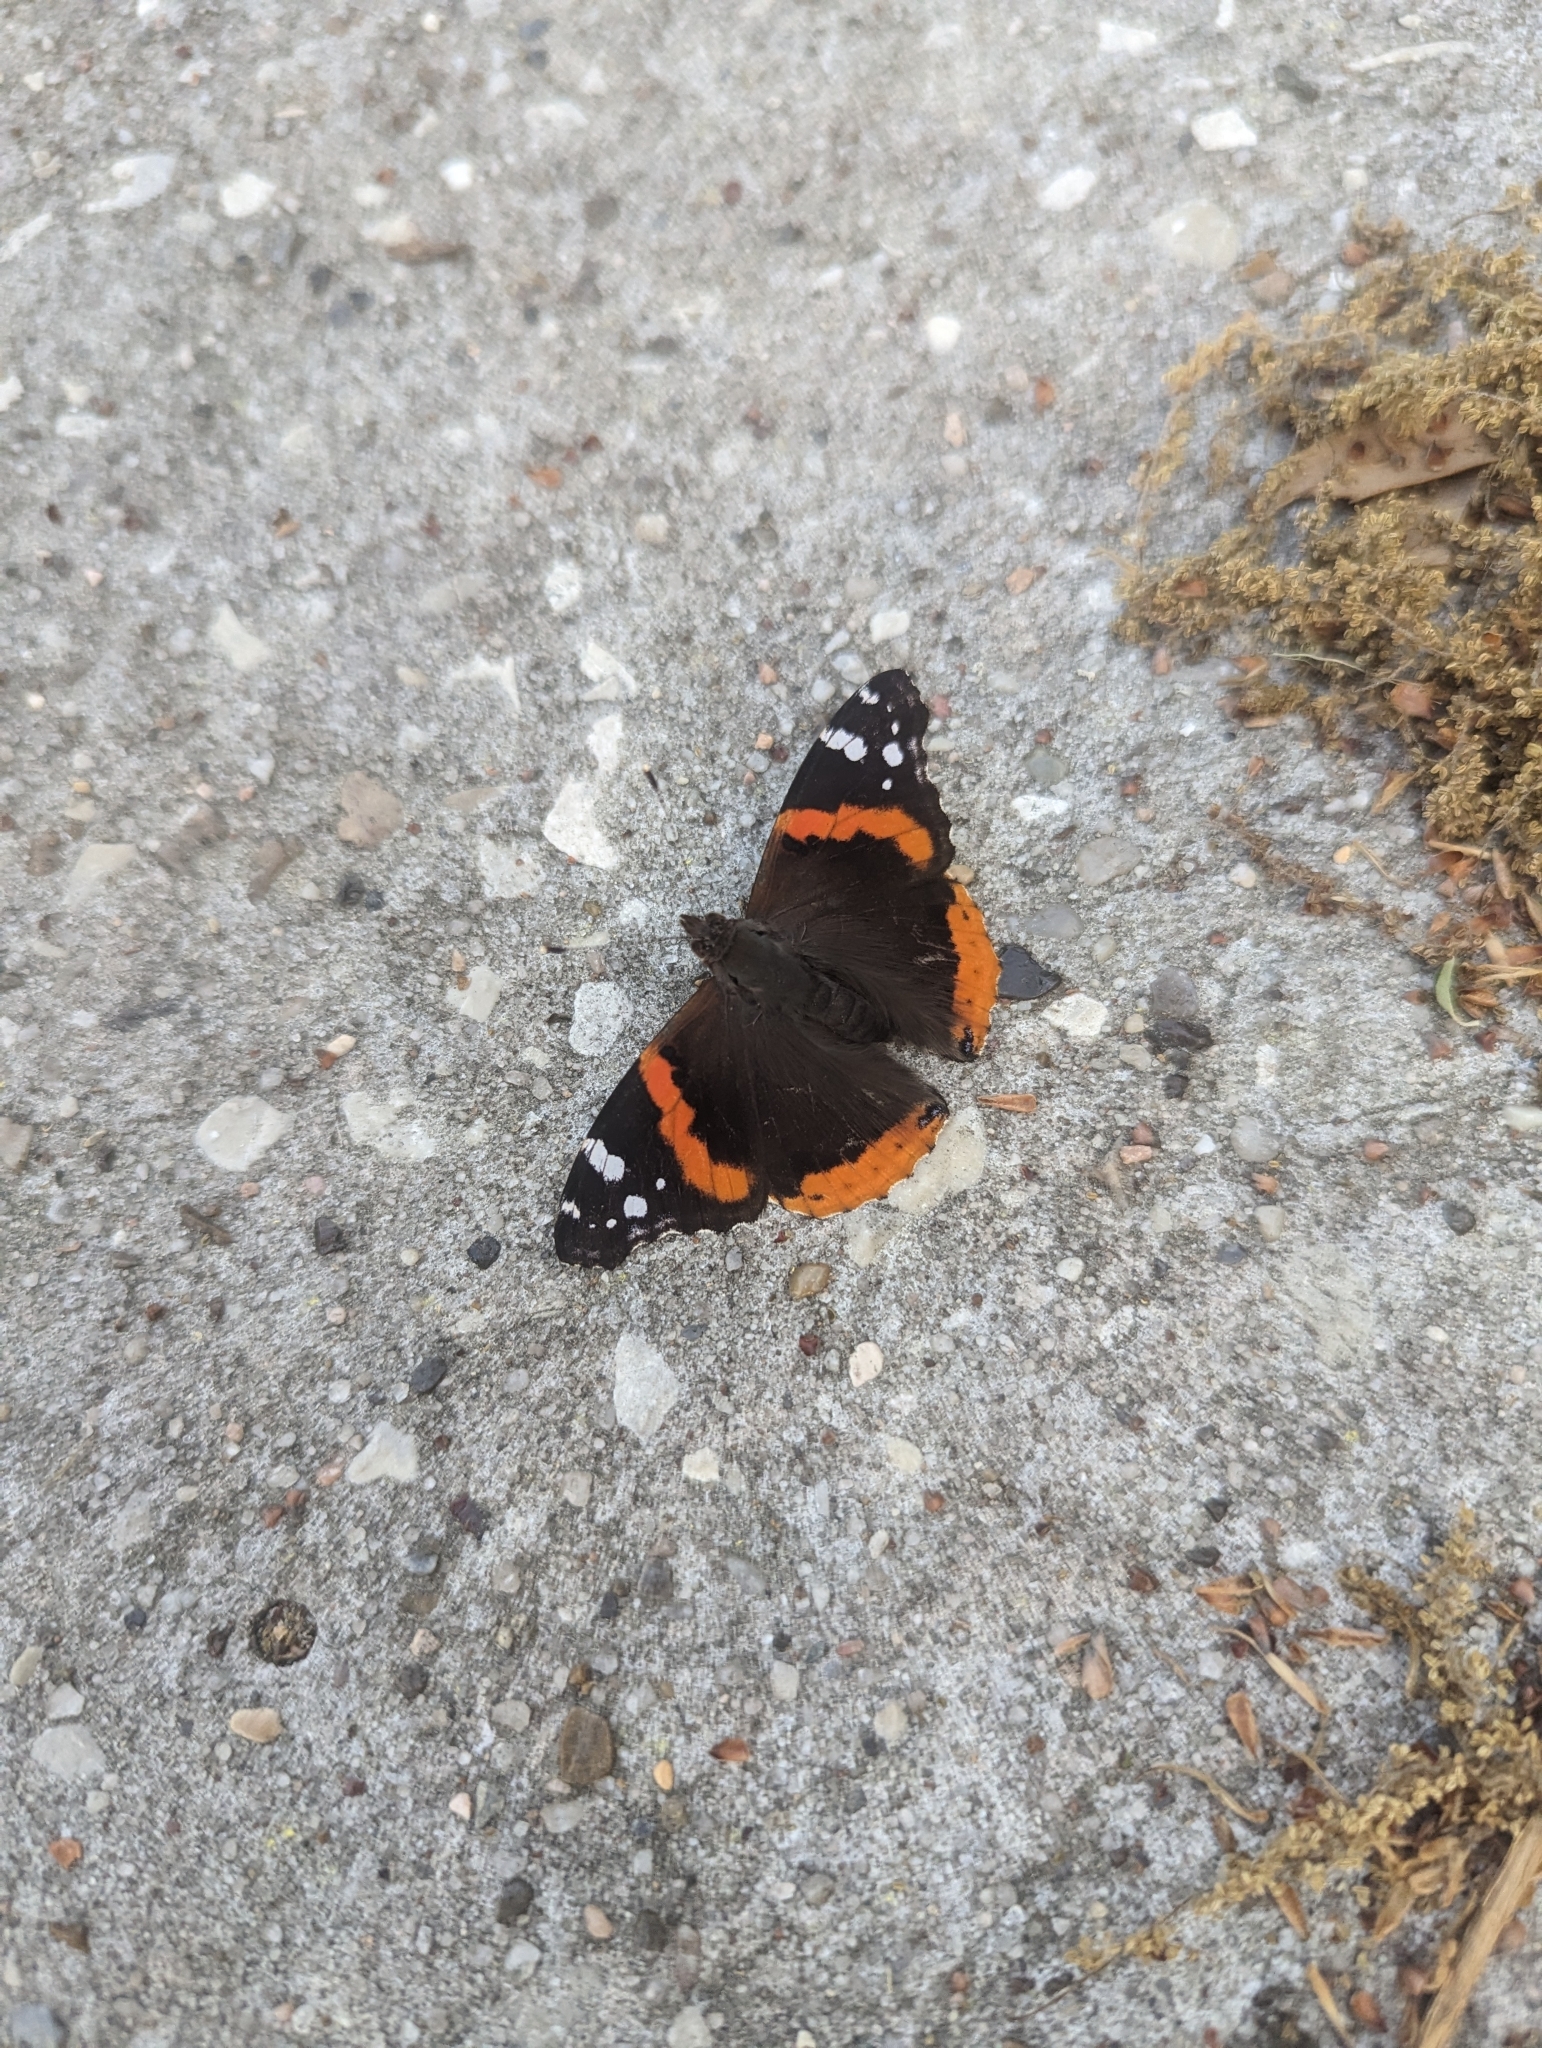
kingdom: Animalia
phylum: Arthropoda
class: Insecta
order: Lepidoptera
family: Nymphalidae
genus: Vanessa
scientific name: Vanessa atalanta
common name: Red admiral
